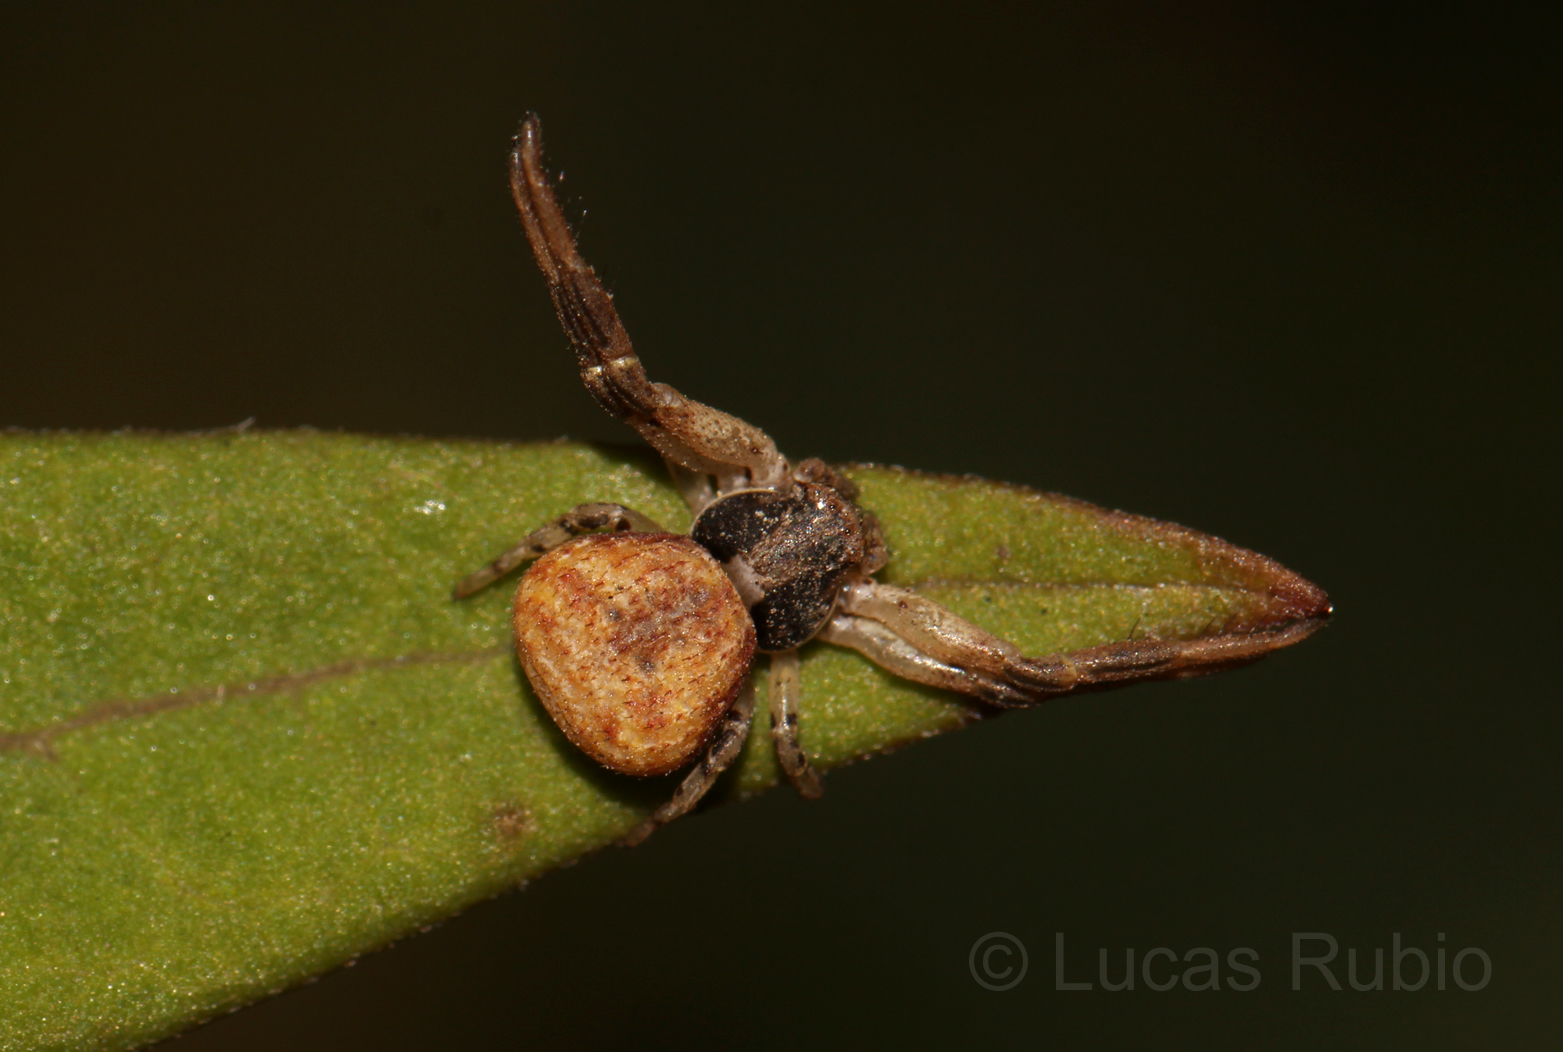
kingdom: Animalia
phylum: Arthropoda
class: Arachnida
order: Araneae
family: Thomisidae
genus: Misumenoides
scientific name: Misumenoides athleticus
